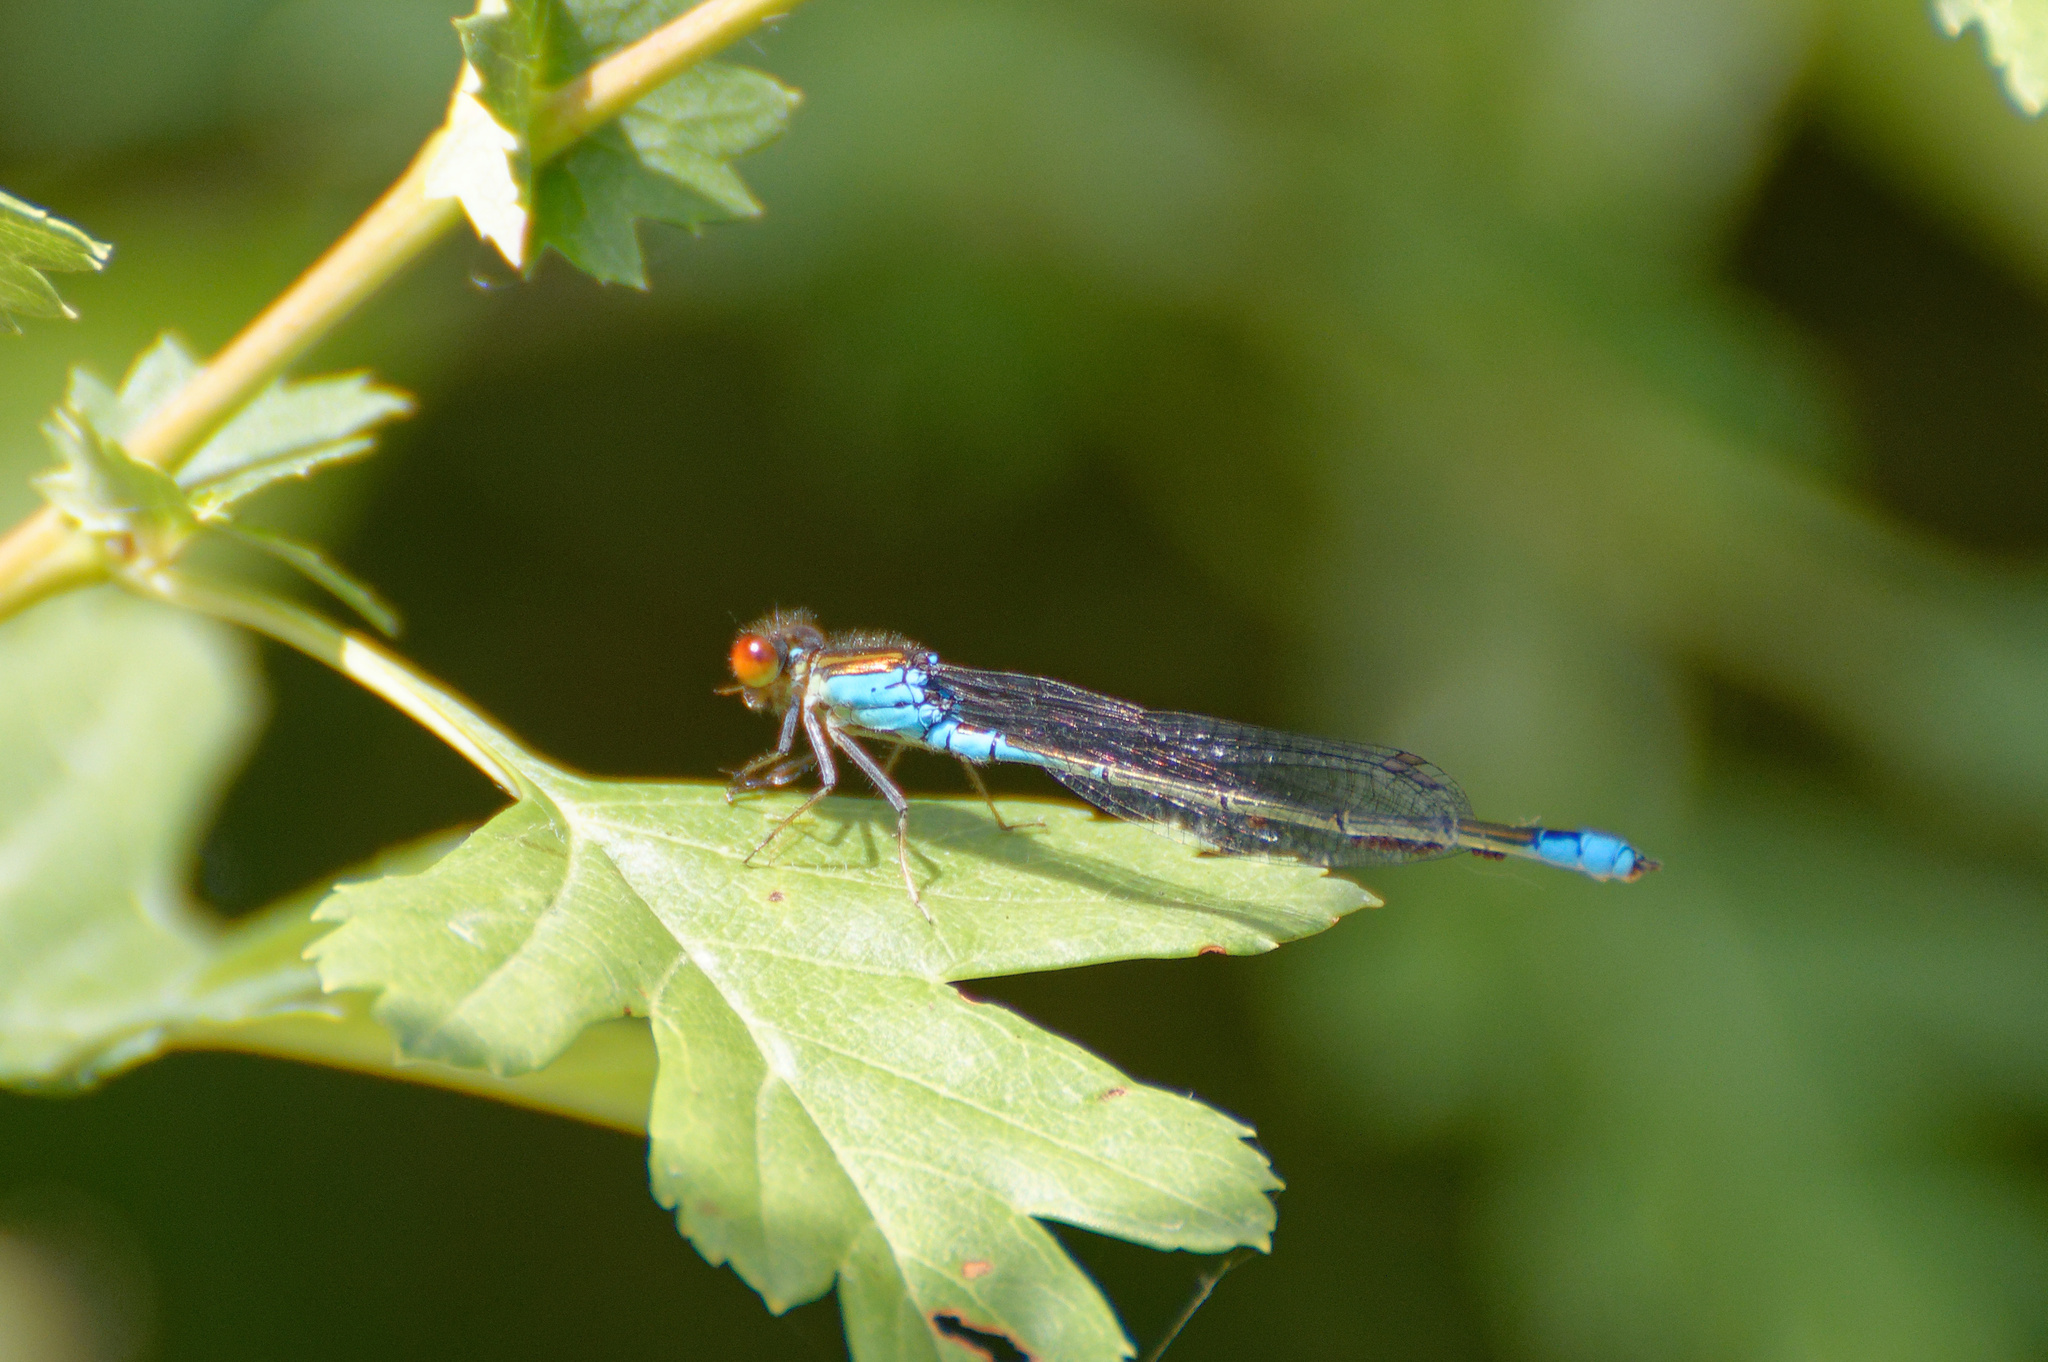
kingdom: Animalia
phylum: Arthropoda
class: Insecta
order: Odonata
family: Coenagrionidae
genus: Erythromma
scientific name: Erythromma viridulum
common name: Small red-eyed damselfly
